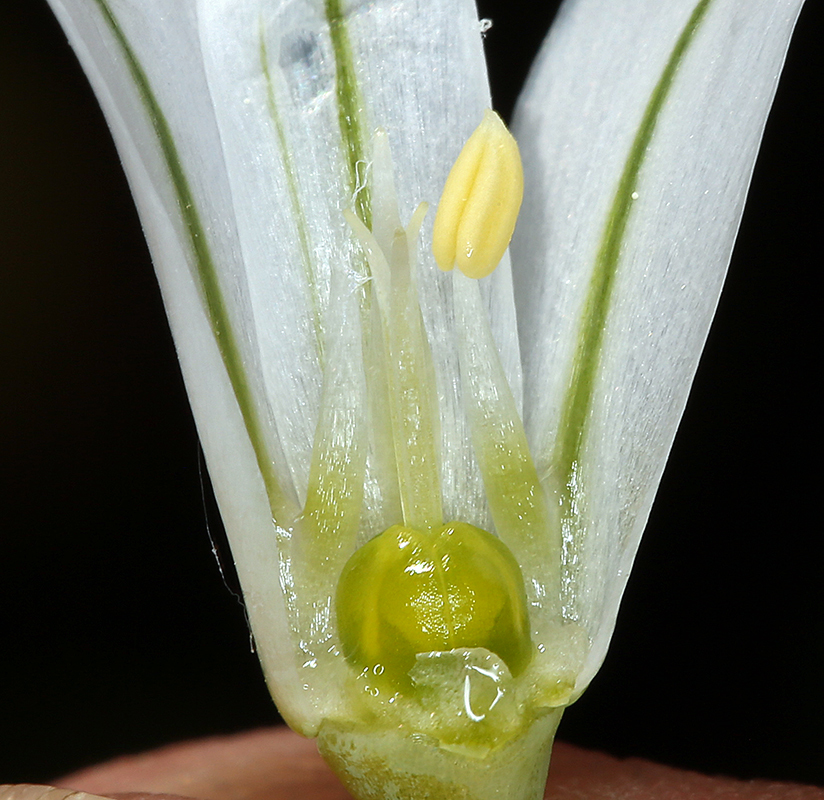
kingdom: Plantae
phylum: Tracheophyta
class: Liliopsida
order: Asparagales
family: Amaryllidaceae
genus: Allium
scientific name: Allium triquetrum
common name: Three-cornered garlic
